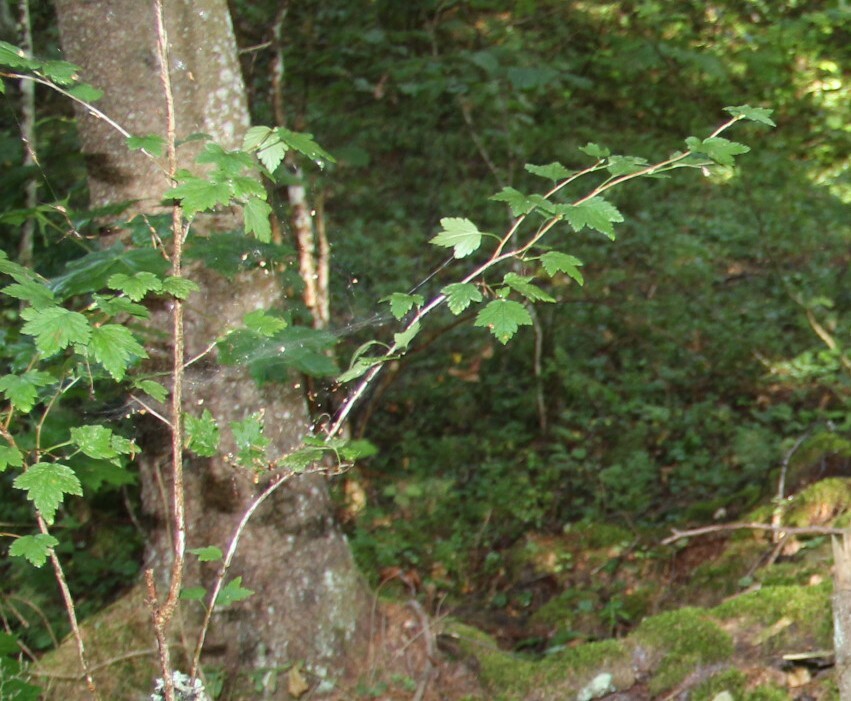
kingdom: Plantae
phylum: Tracheophyta
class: Magnoliopsida
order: Saxifragales
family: Grossulariaceae
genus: Ribes
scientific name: Ribes alpinum
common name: Alpine currant
